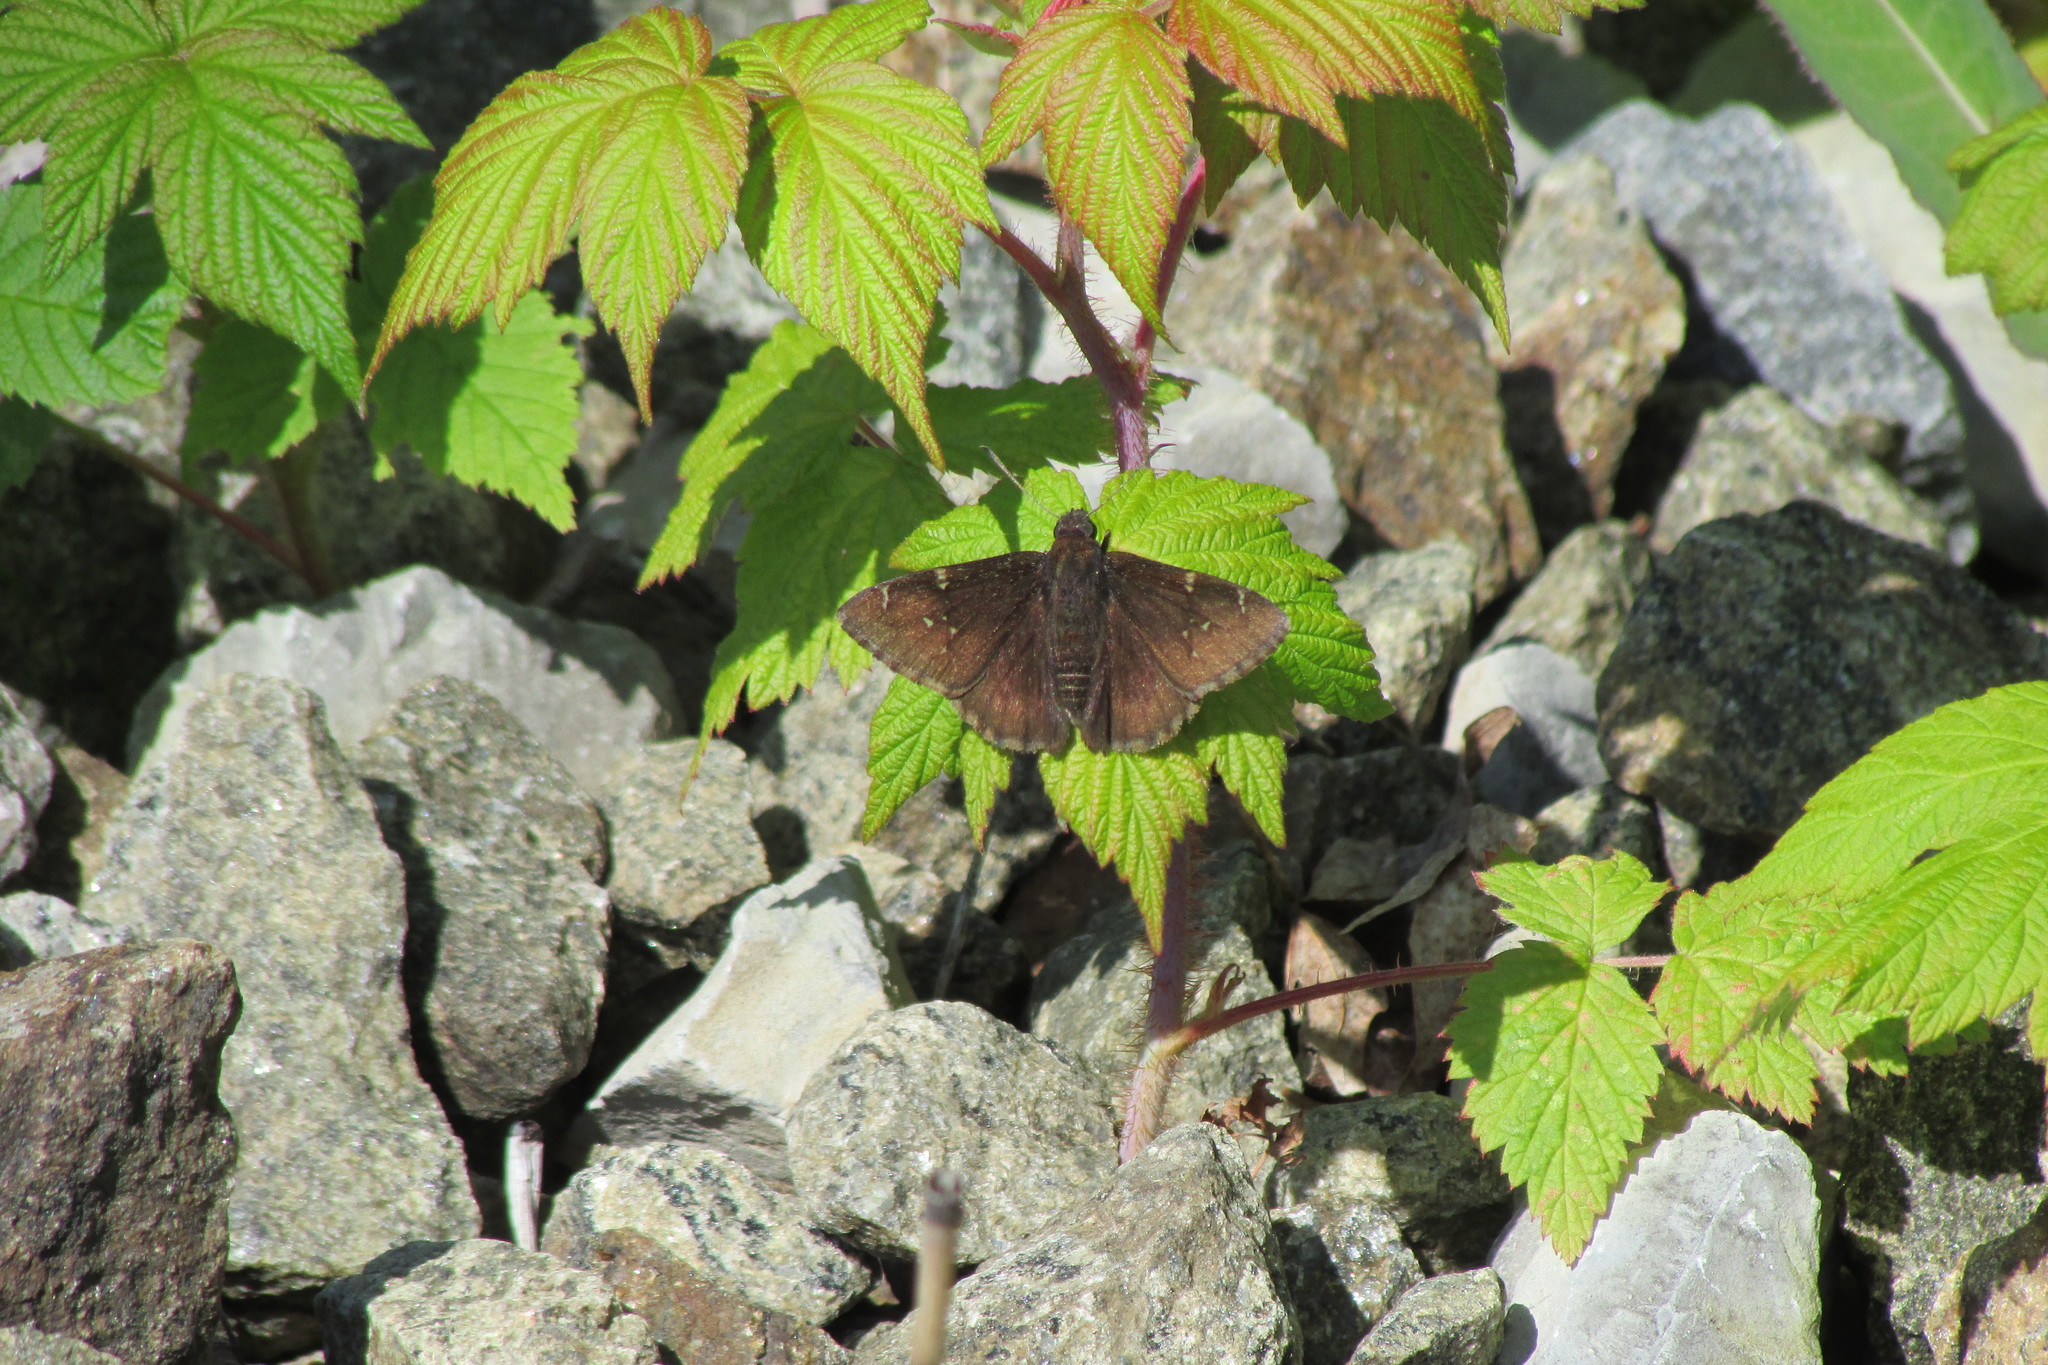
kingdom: Animalia
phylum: Arthropoda
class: Insecta
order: Lepidoptera
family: Hesperiidae
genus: Thorybes
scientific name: Thorybes pylades
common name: Northern cloudywing
